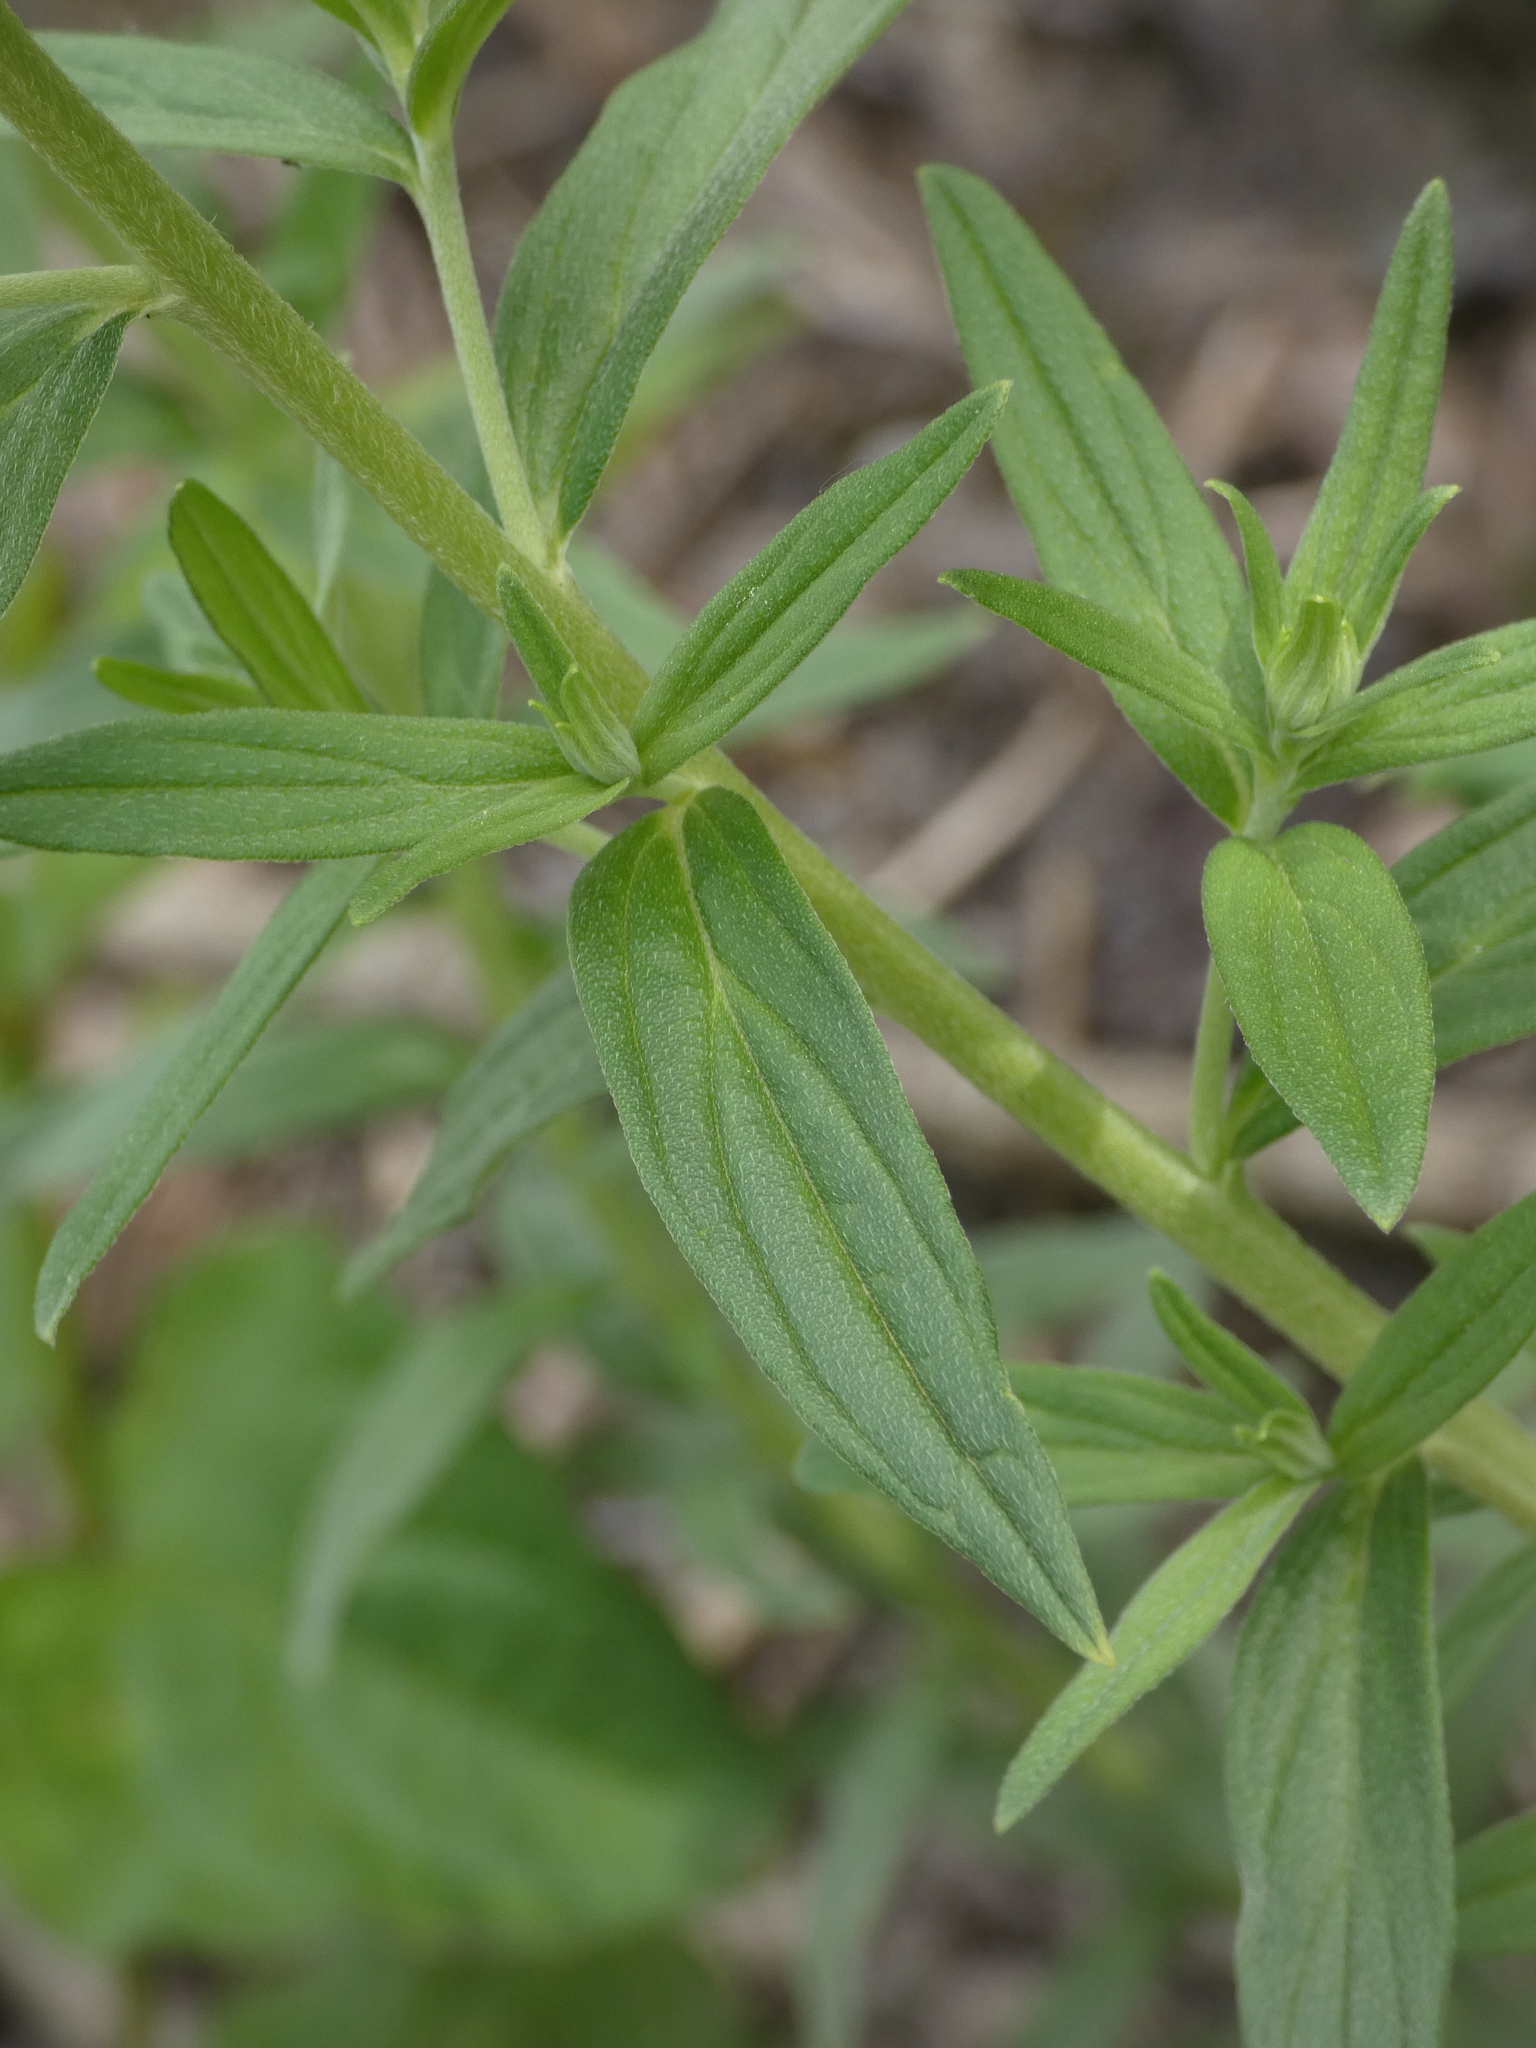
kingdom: Plantae
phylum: Tracheophyta
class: Magnoliopsida
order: Boraginales
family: Boraginaceae
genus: Lithospermum
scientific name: Lithospermum officinale
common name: Common gromwell
